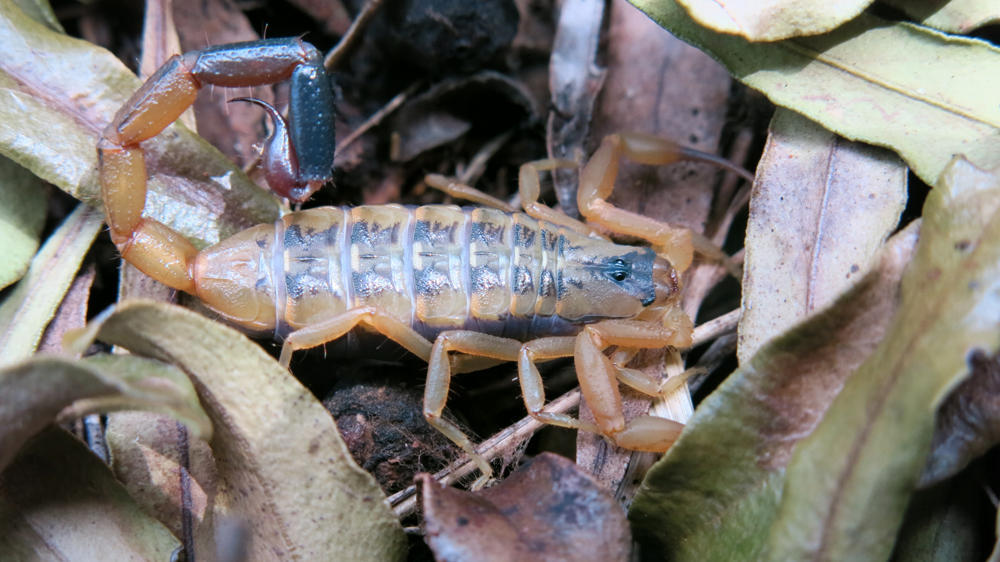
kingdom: Animalia
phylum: Arthropoda
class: Arachnida
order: Scorpiones
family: Buthidae
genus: Uroplectes
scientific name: Uroplectes vittatus
